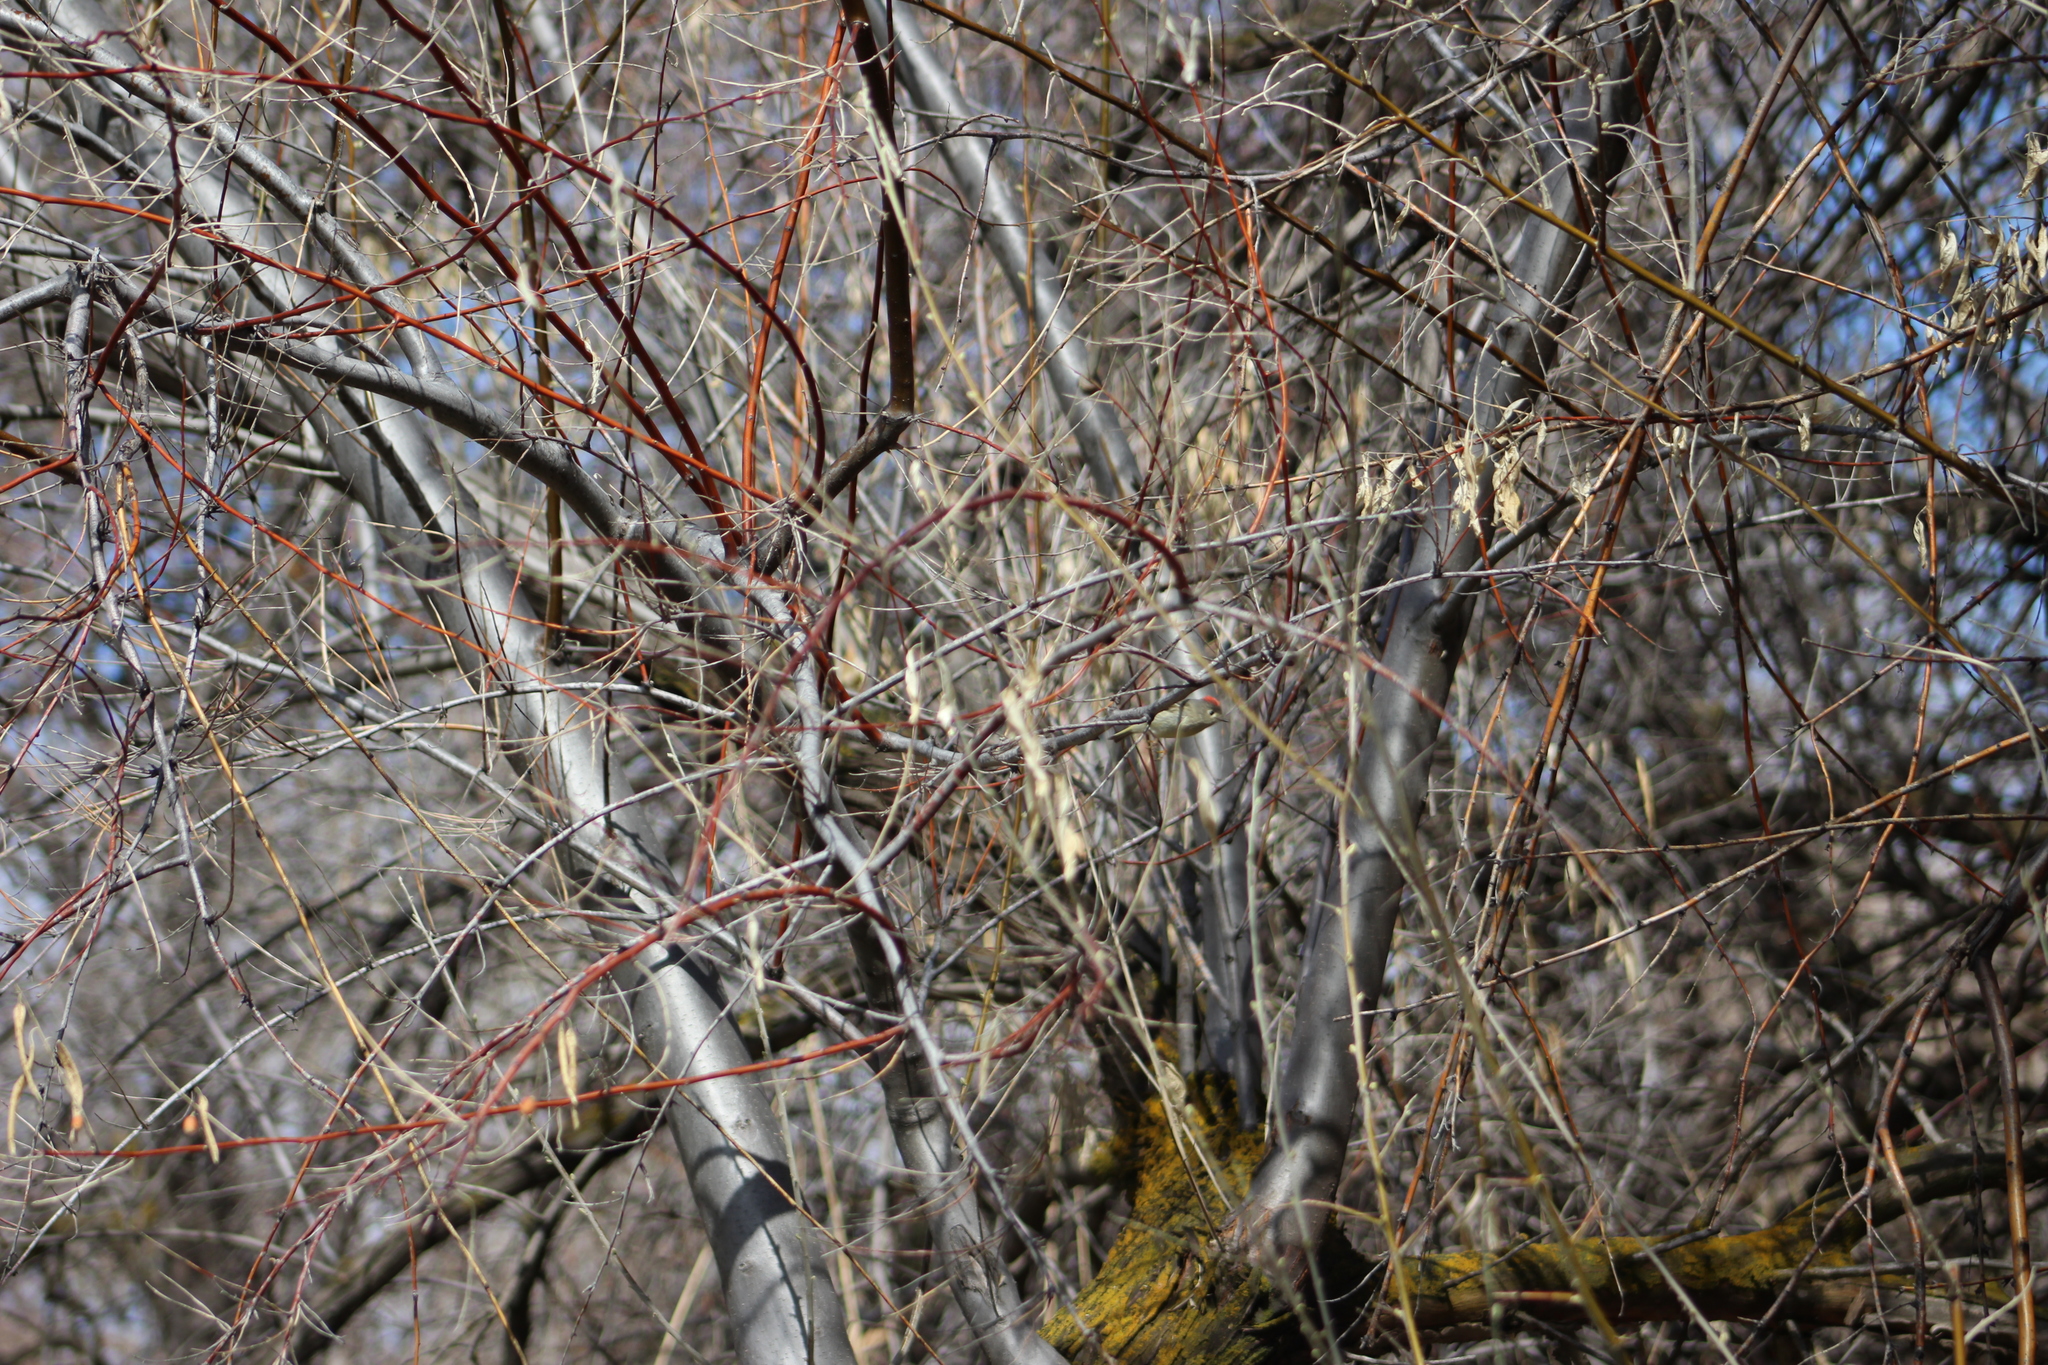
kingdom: Animalia
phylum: Chordata
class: Aves
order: Passeriformes
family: Regulidae
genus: Regulus
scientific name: Regulus calendula
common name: Ruby-crowned kinglet
